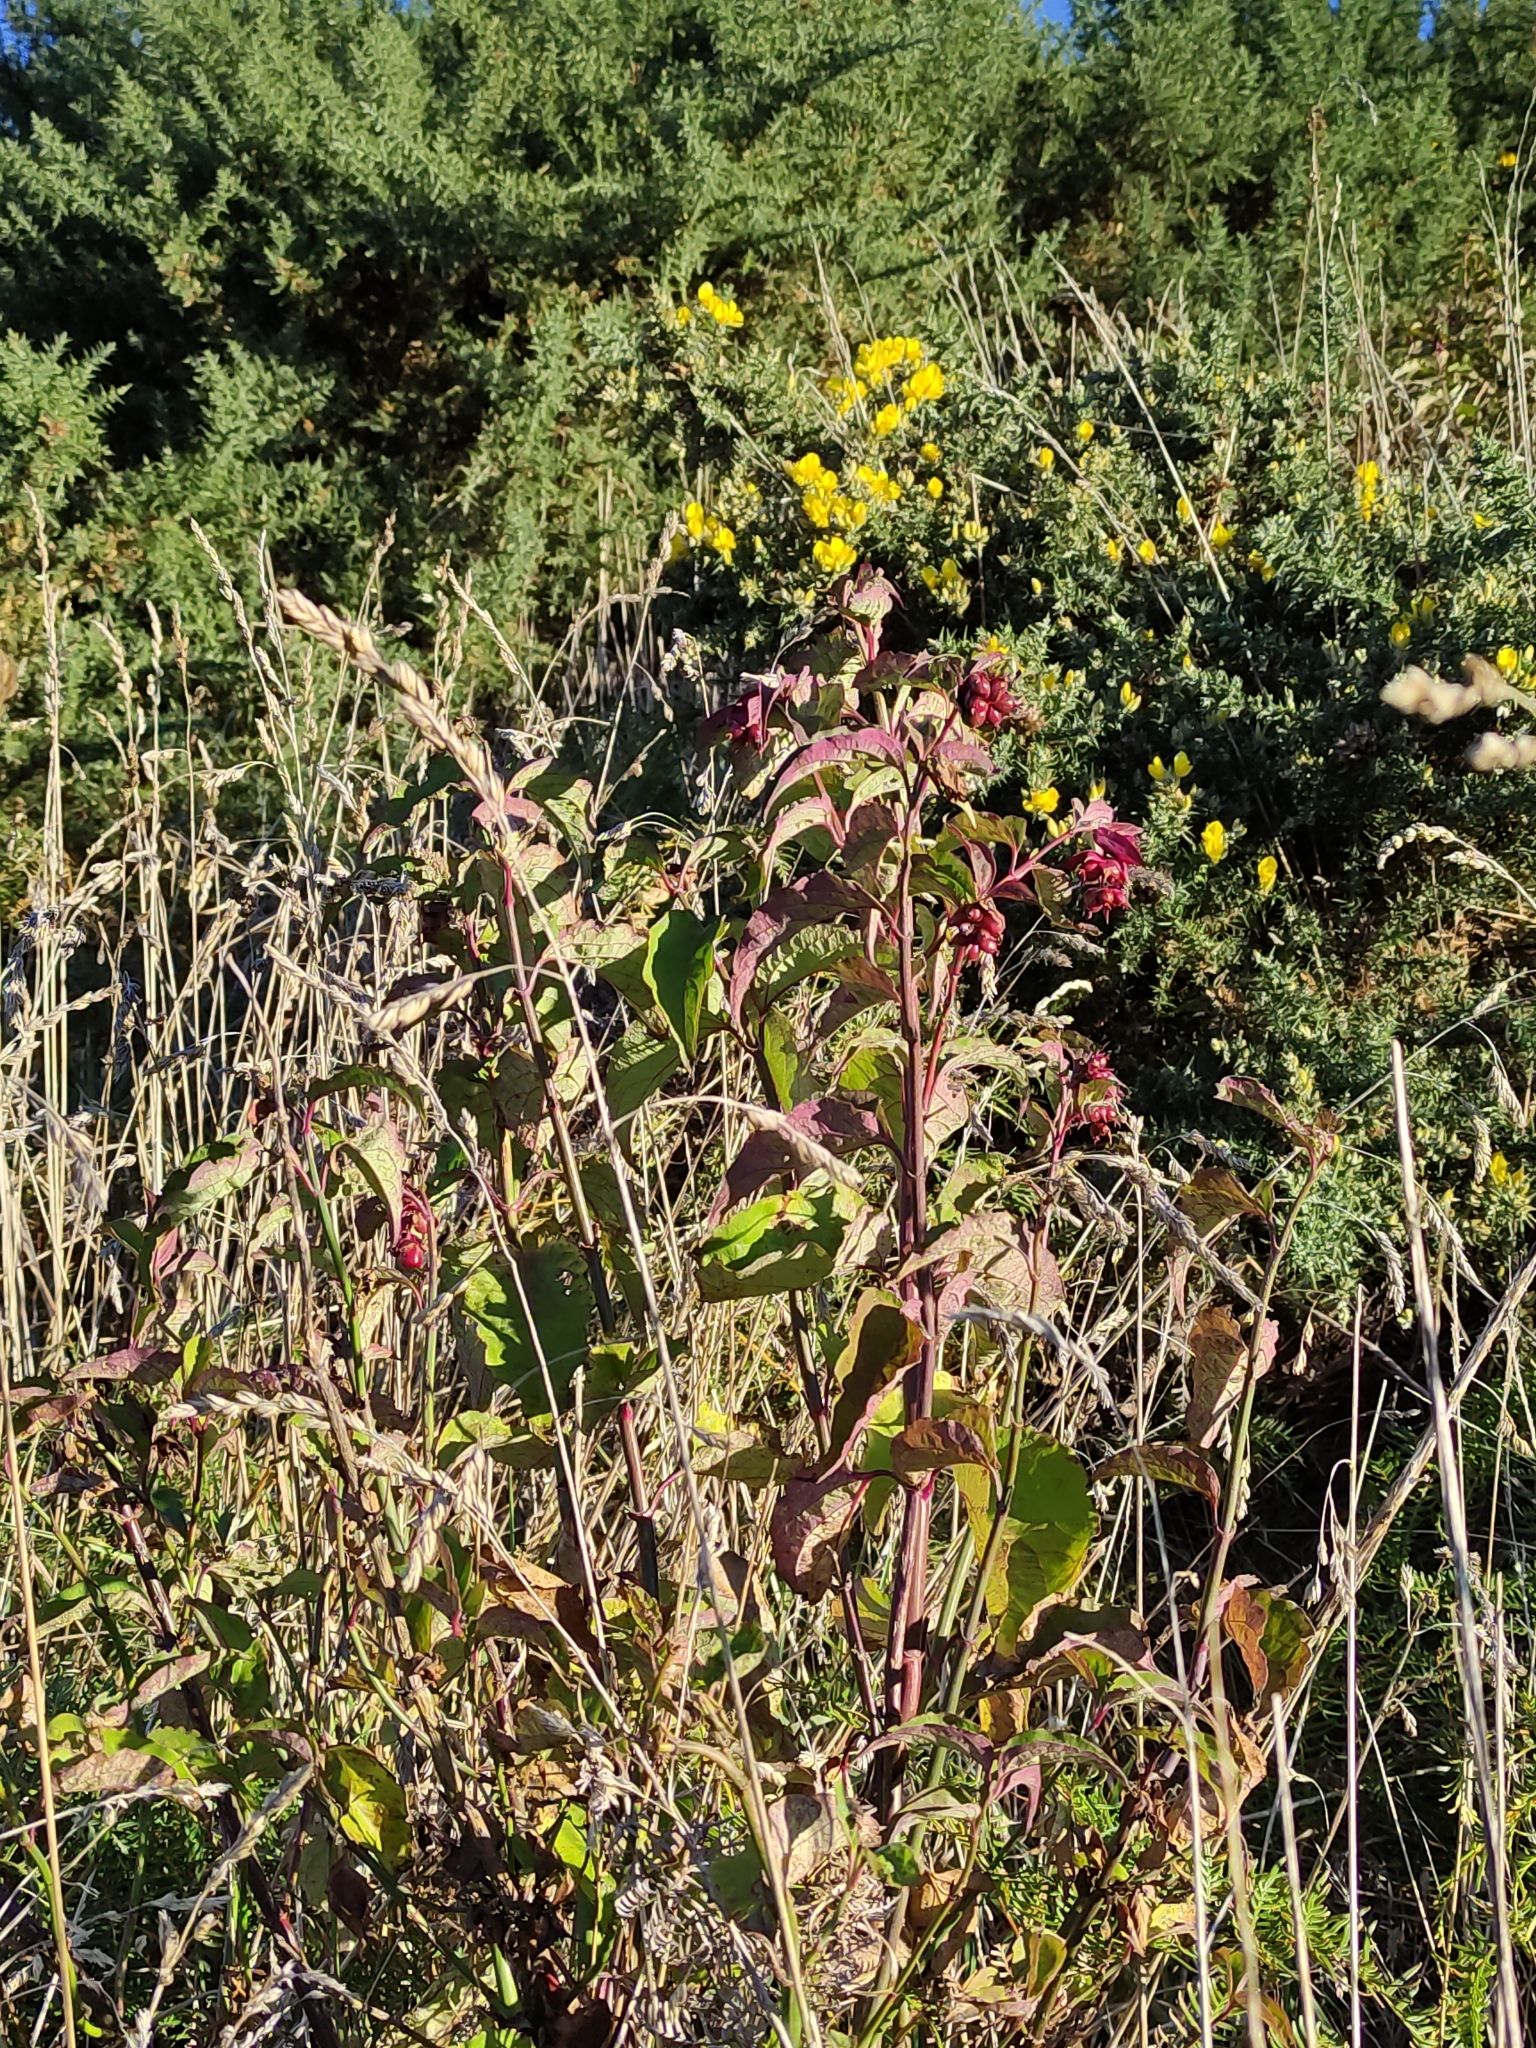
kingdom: Plantae
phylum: Tracheophyta
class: Magnoliopsida
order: Dipsacales
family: Caprifoliaceae
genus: Leycesteria
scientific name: Leycesteria formosa
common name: Himalayan honeysuckle
